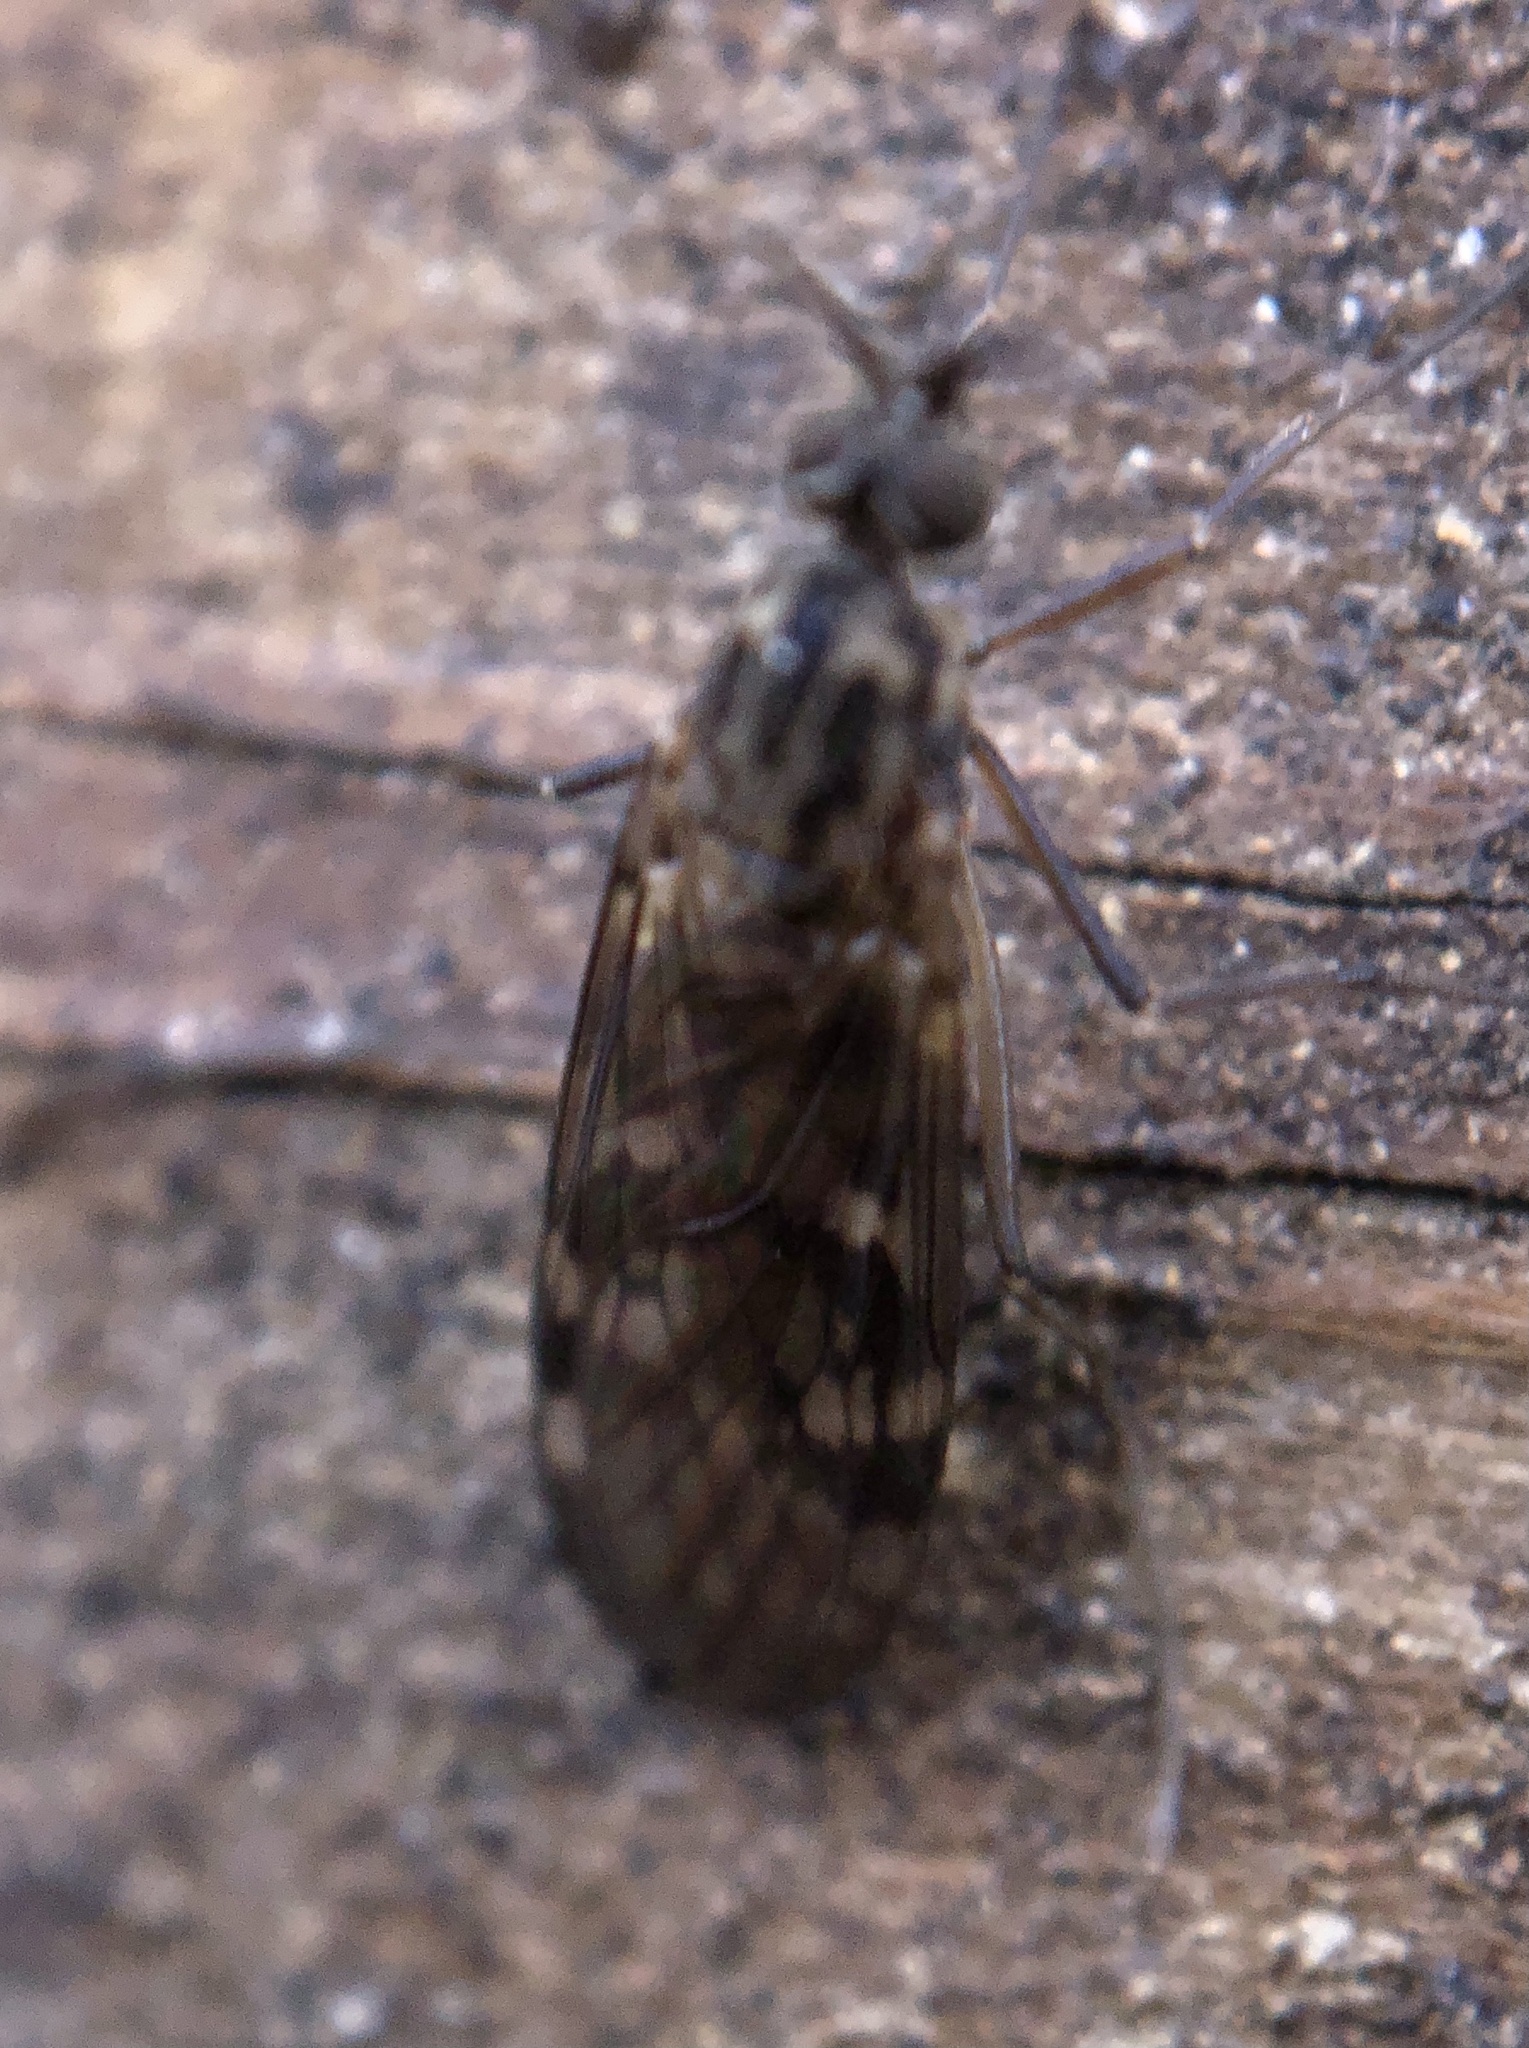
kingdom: Animalia
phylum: Arthropoda
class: Insecta
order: Diptera
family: Anisopodidae
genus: Sylvicola
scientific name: Sylvicola notialis
